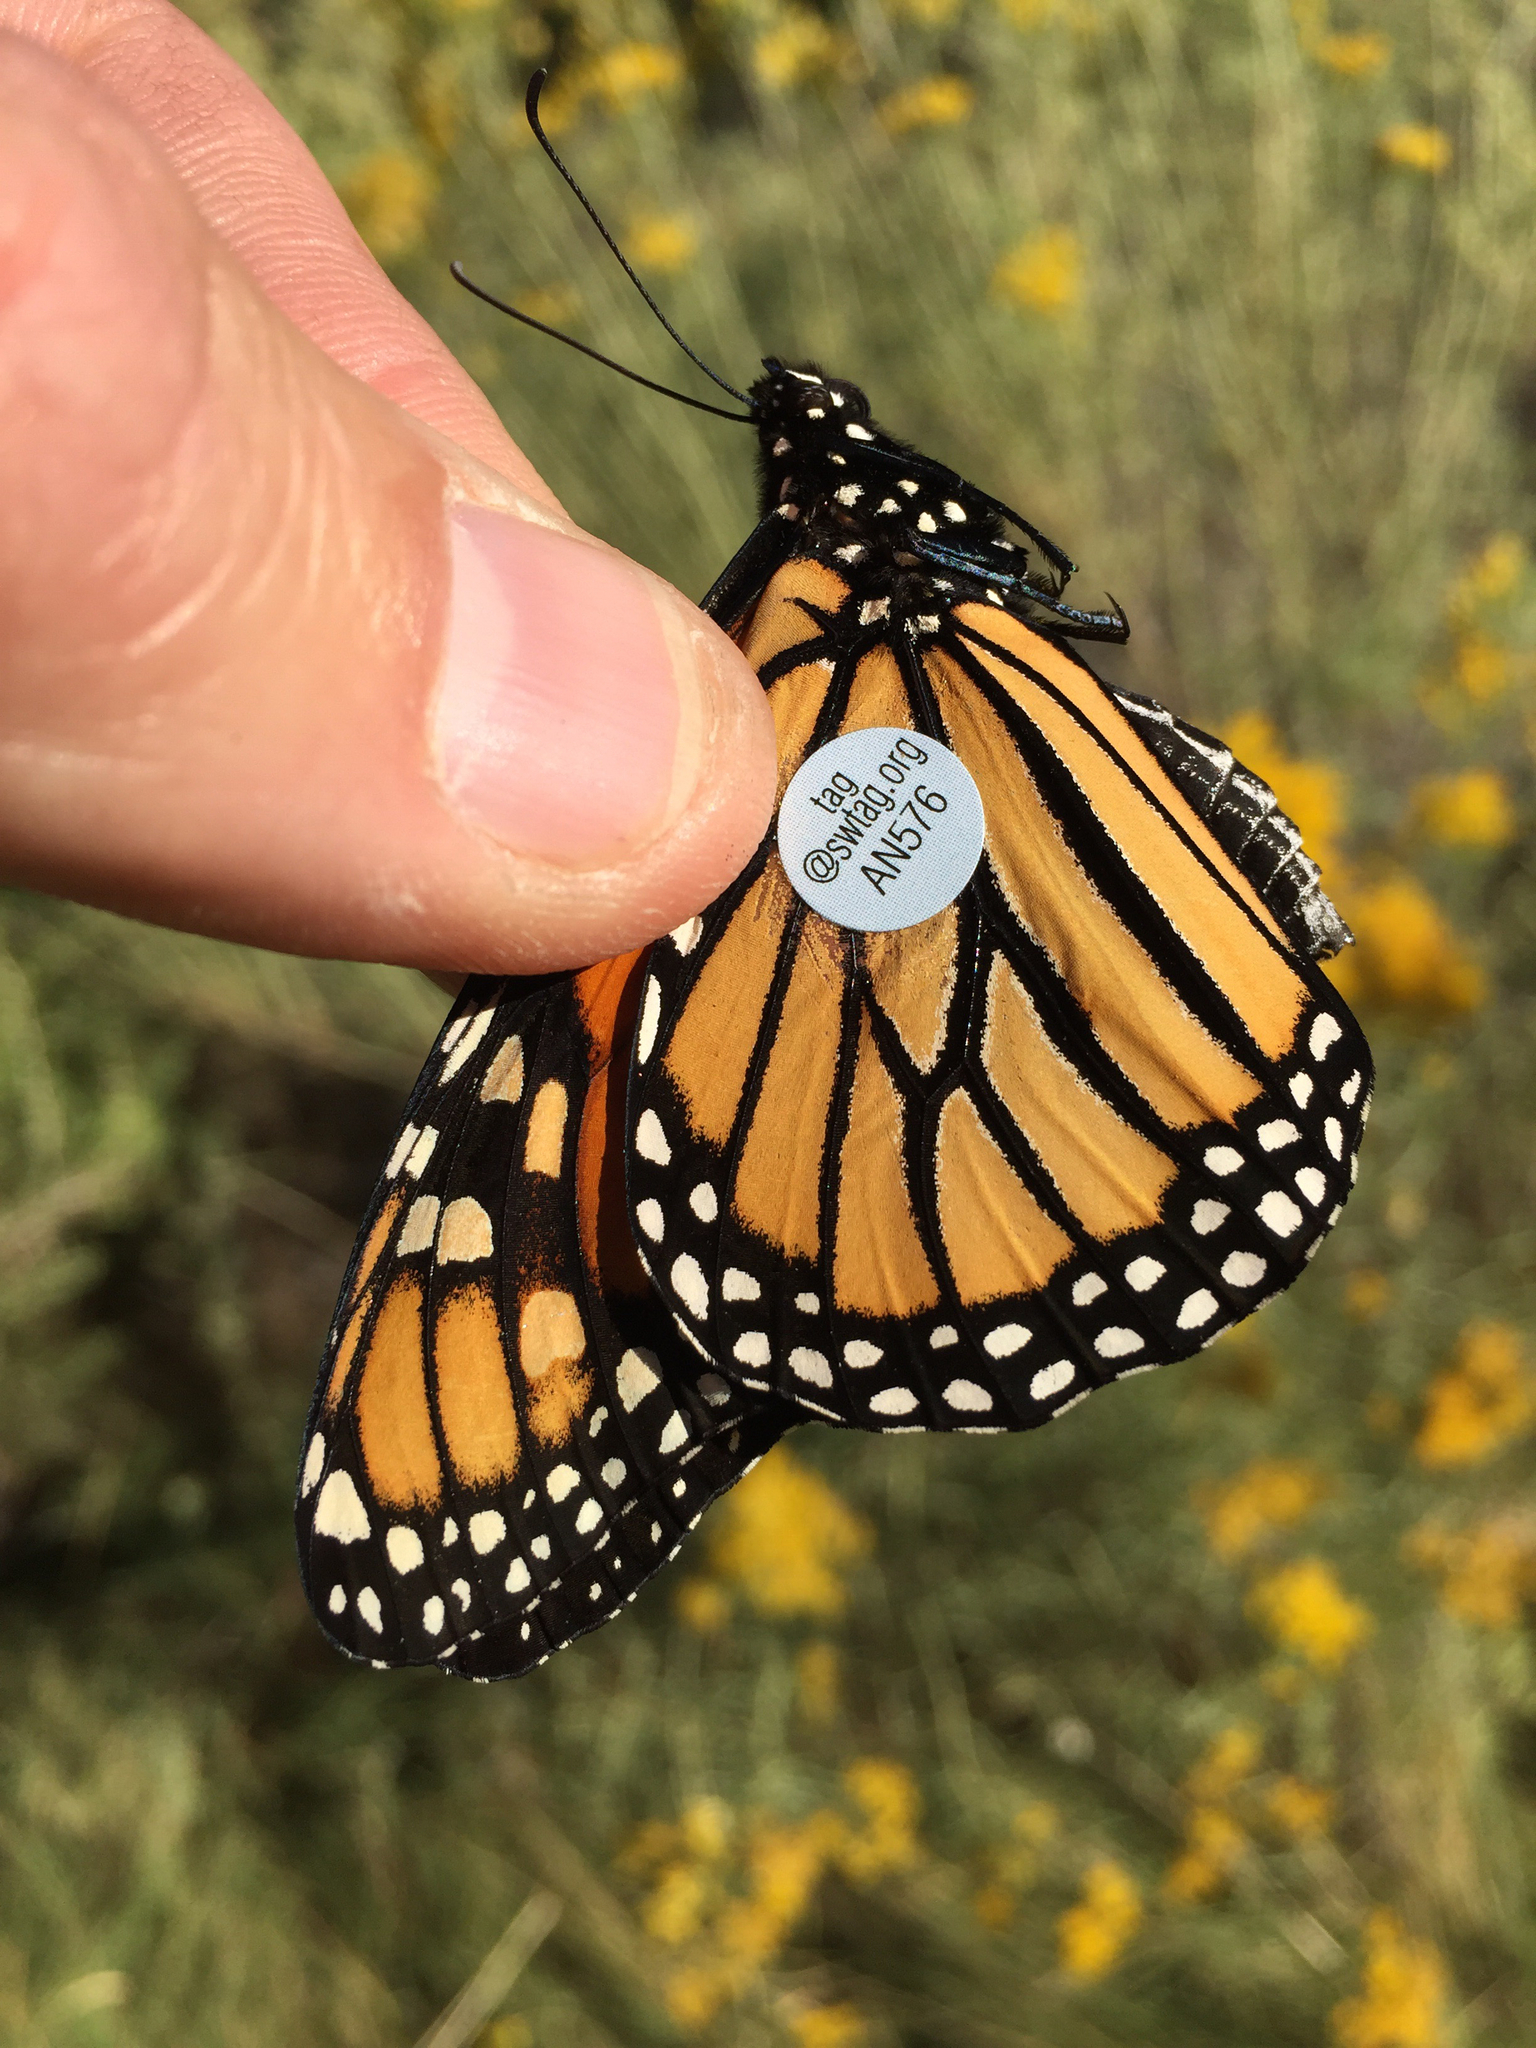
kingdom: Animalia
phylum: Arthropoda
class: Insecta
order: Lepidoptera
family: Nymphalidae
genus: Danaus
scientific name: Danaus plexippus
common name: Monarch
